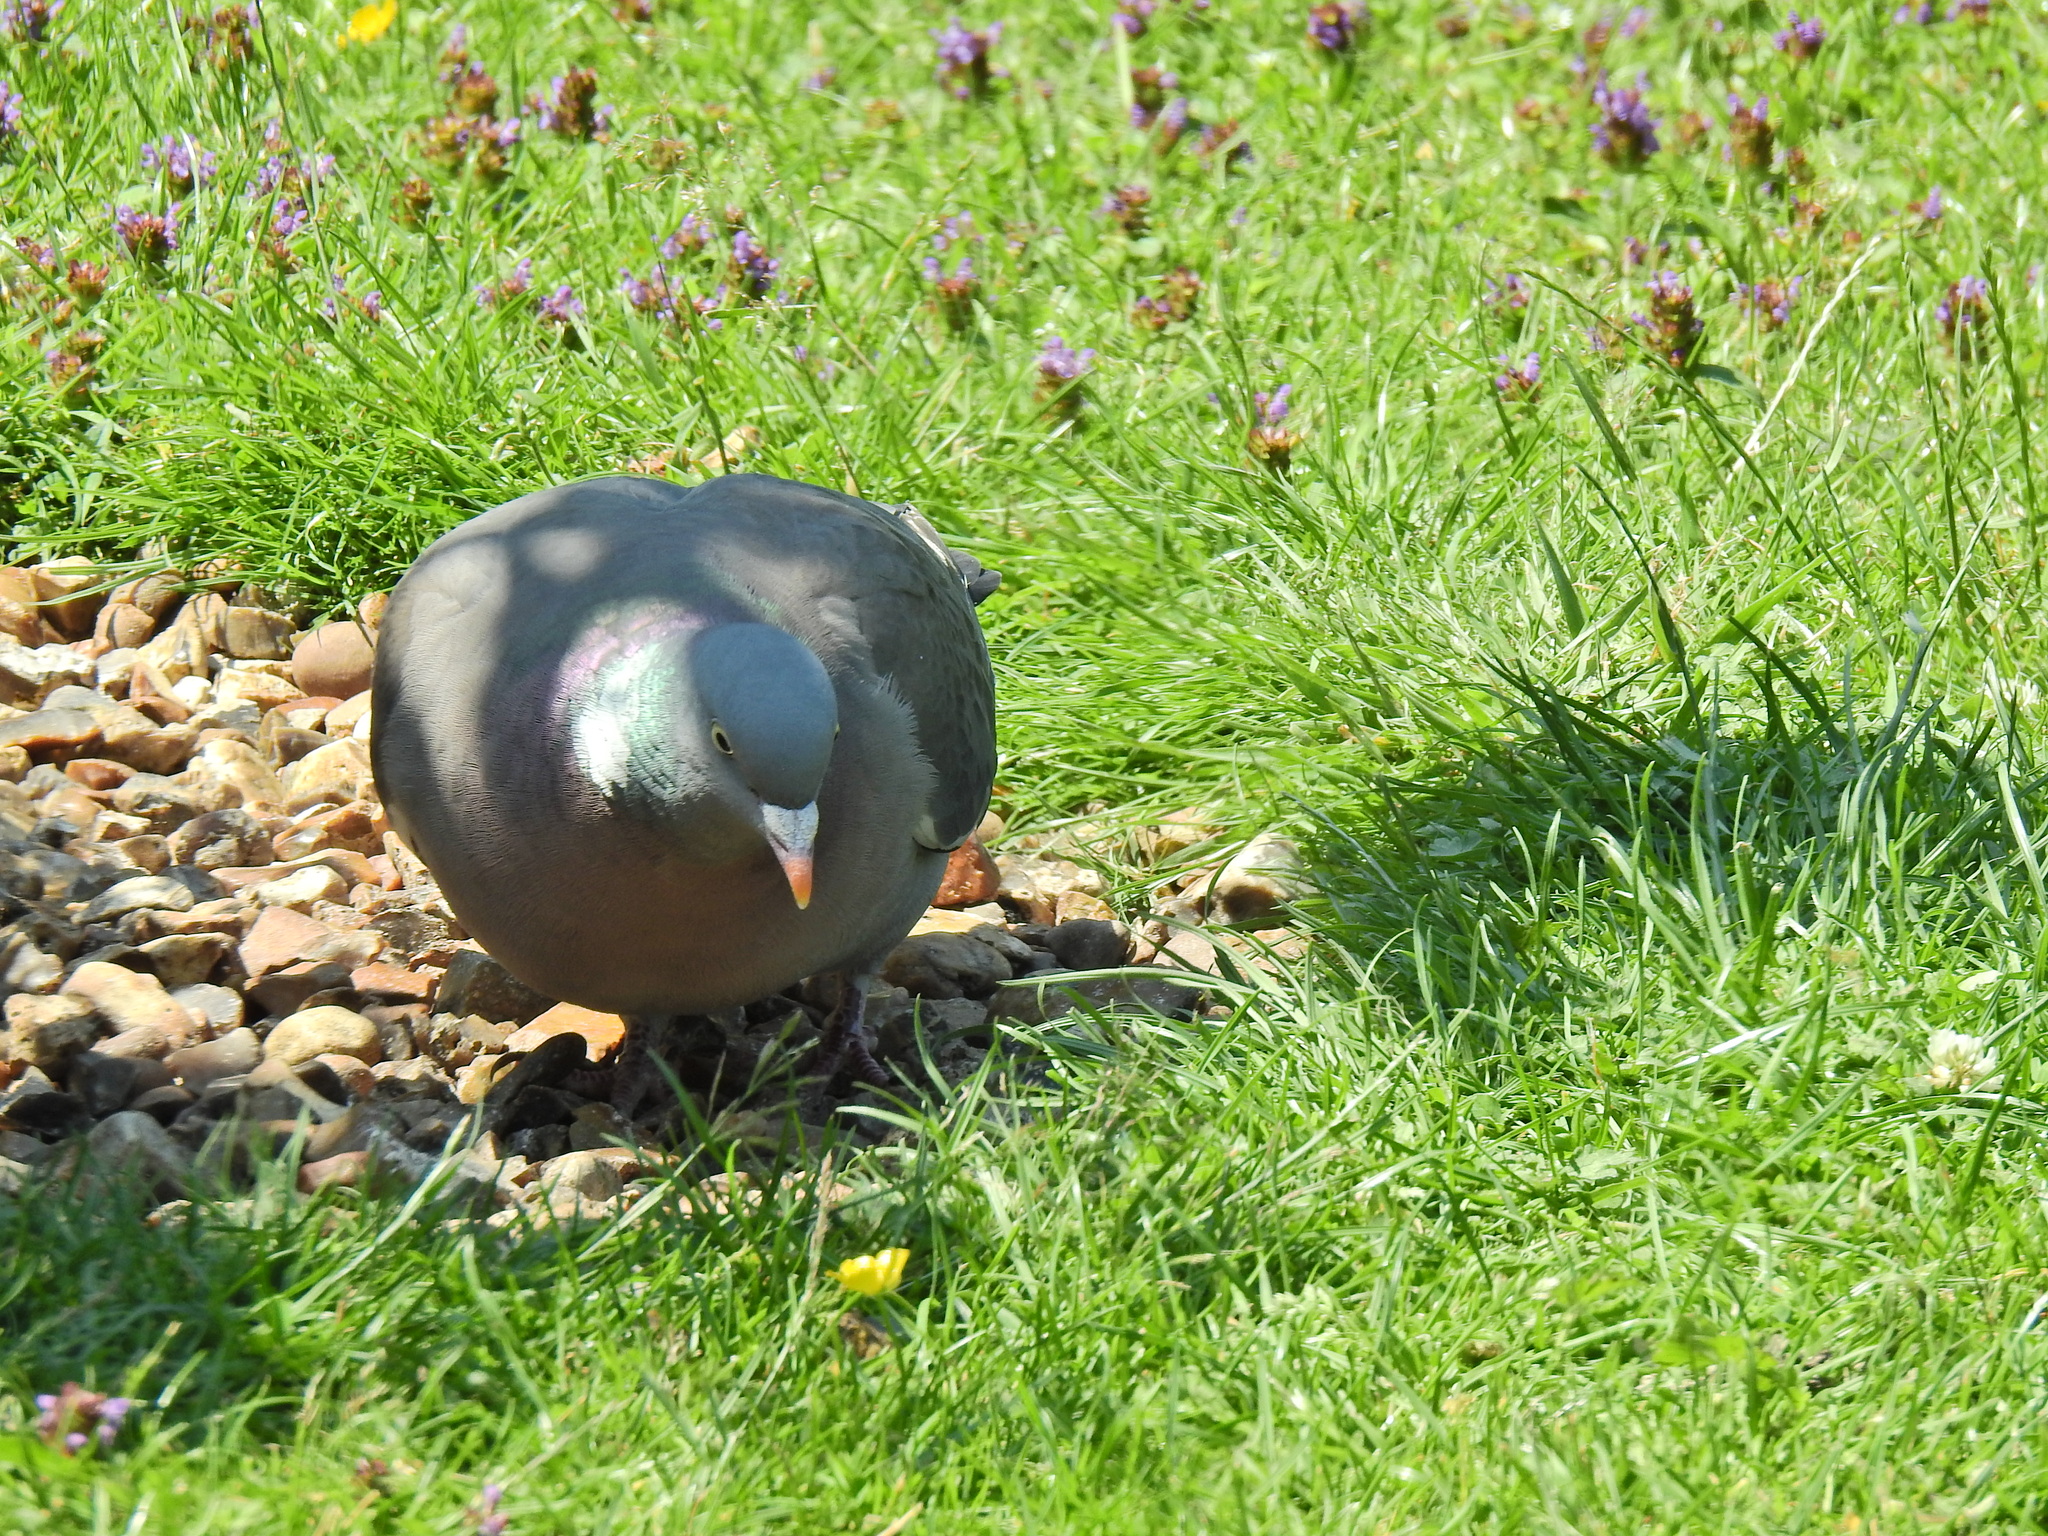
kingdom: Animalia
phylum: Chordata
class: Aves
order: Columbiformes
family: Columbidae
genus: Columba
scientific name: Columba palumbus
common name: Common wood pigeon
